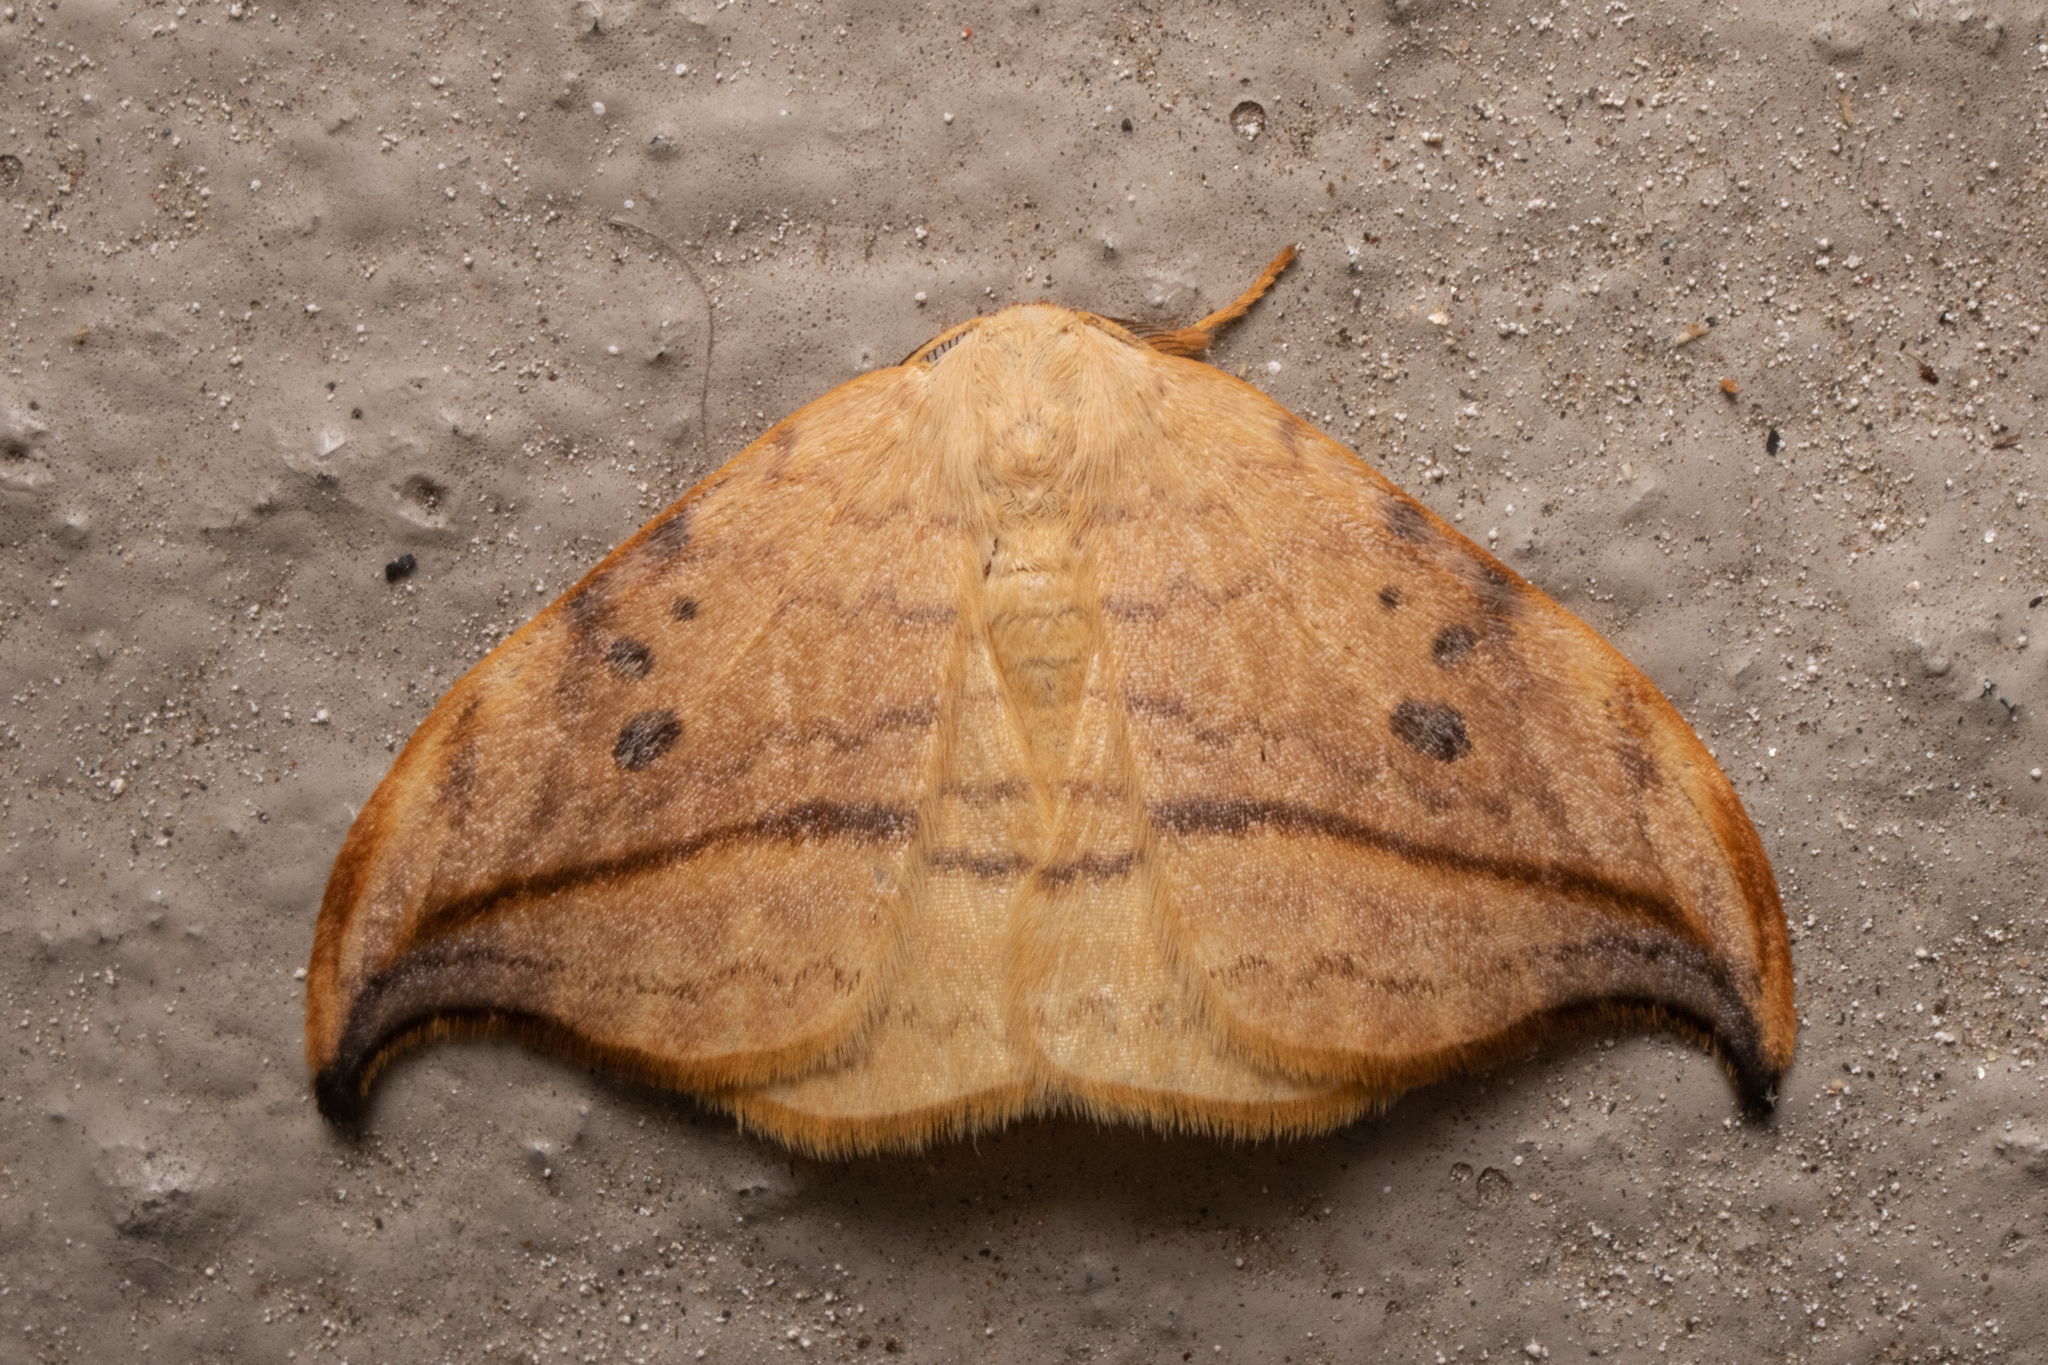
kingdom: Animalia
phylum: Arthropoda
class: Insecta
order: Lepidoptera
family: Drepanidae
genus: Drepana
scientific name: Drepana arcuata
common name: Arched hooktip moth
